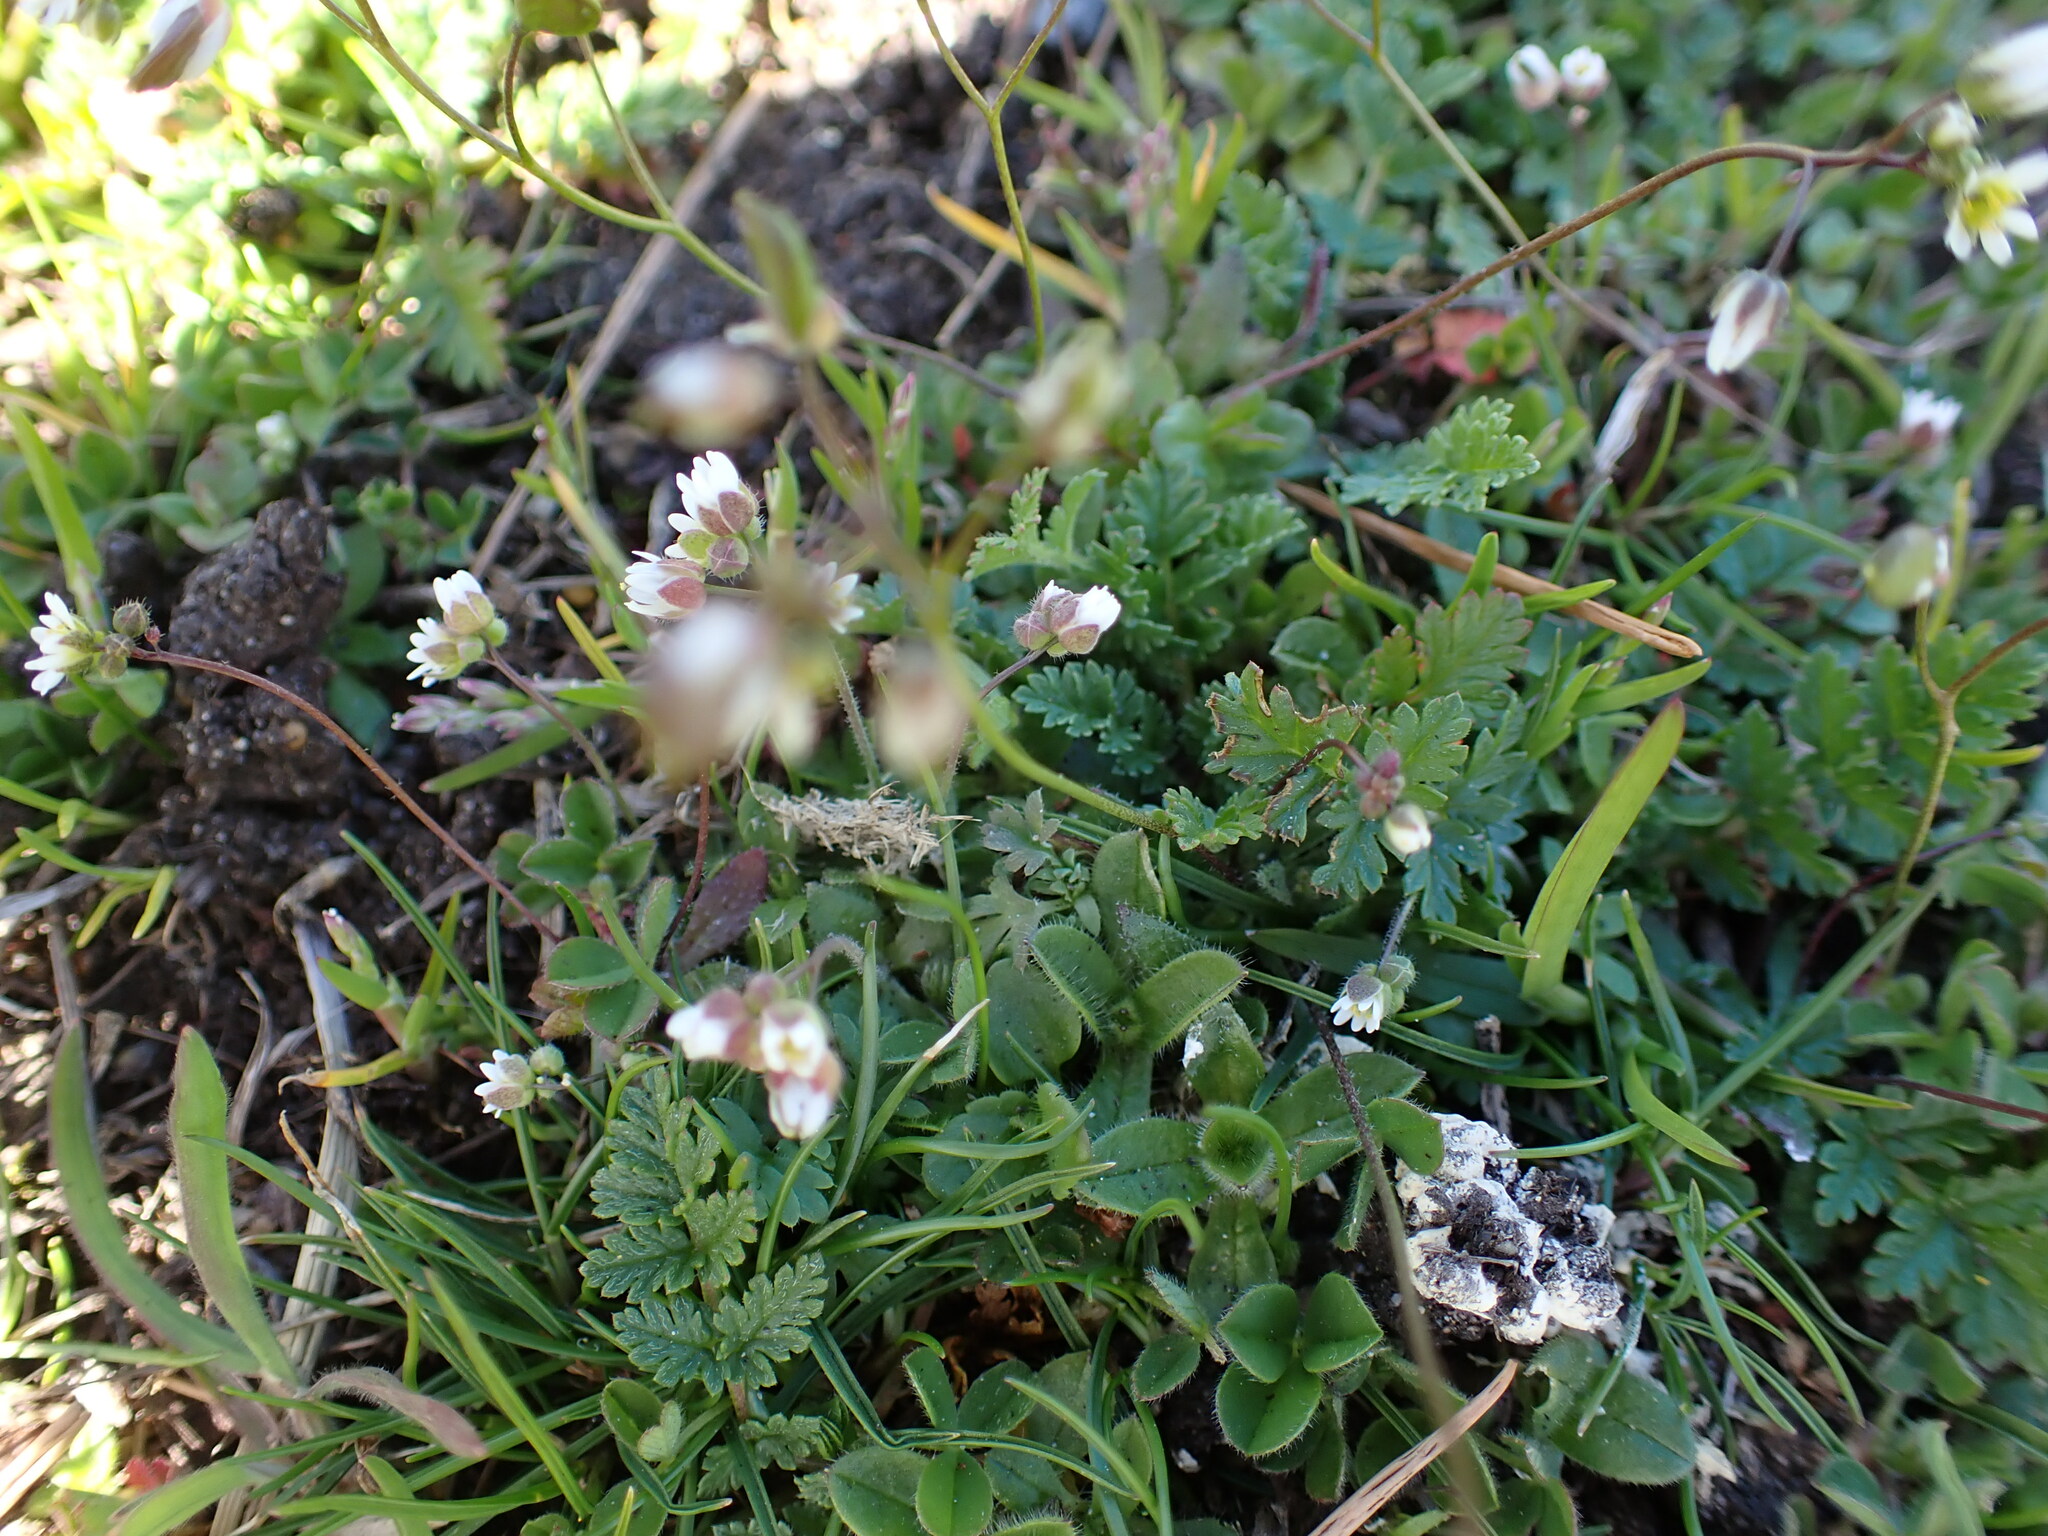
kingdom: Plantae
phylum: Tracheophyta
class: Magnoliopsida
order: Brassicales
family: Brassicaceae
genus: Draba
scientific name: Draba verna
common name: Spring draba
